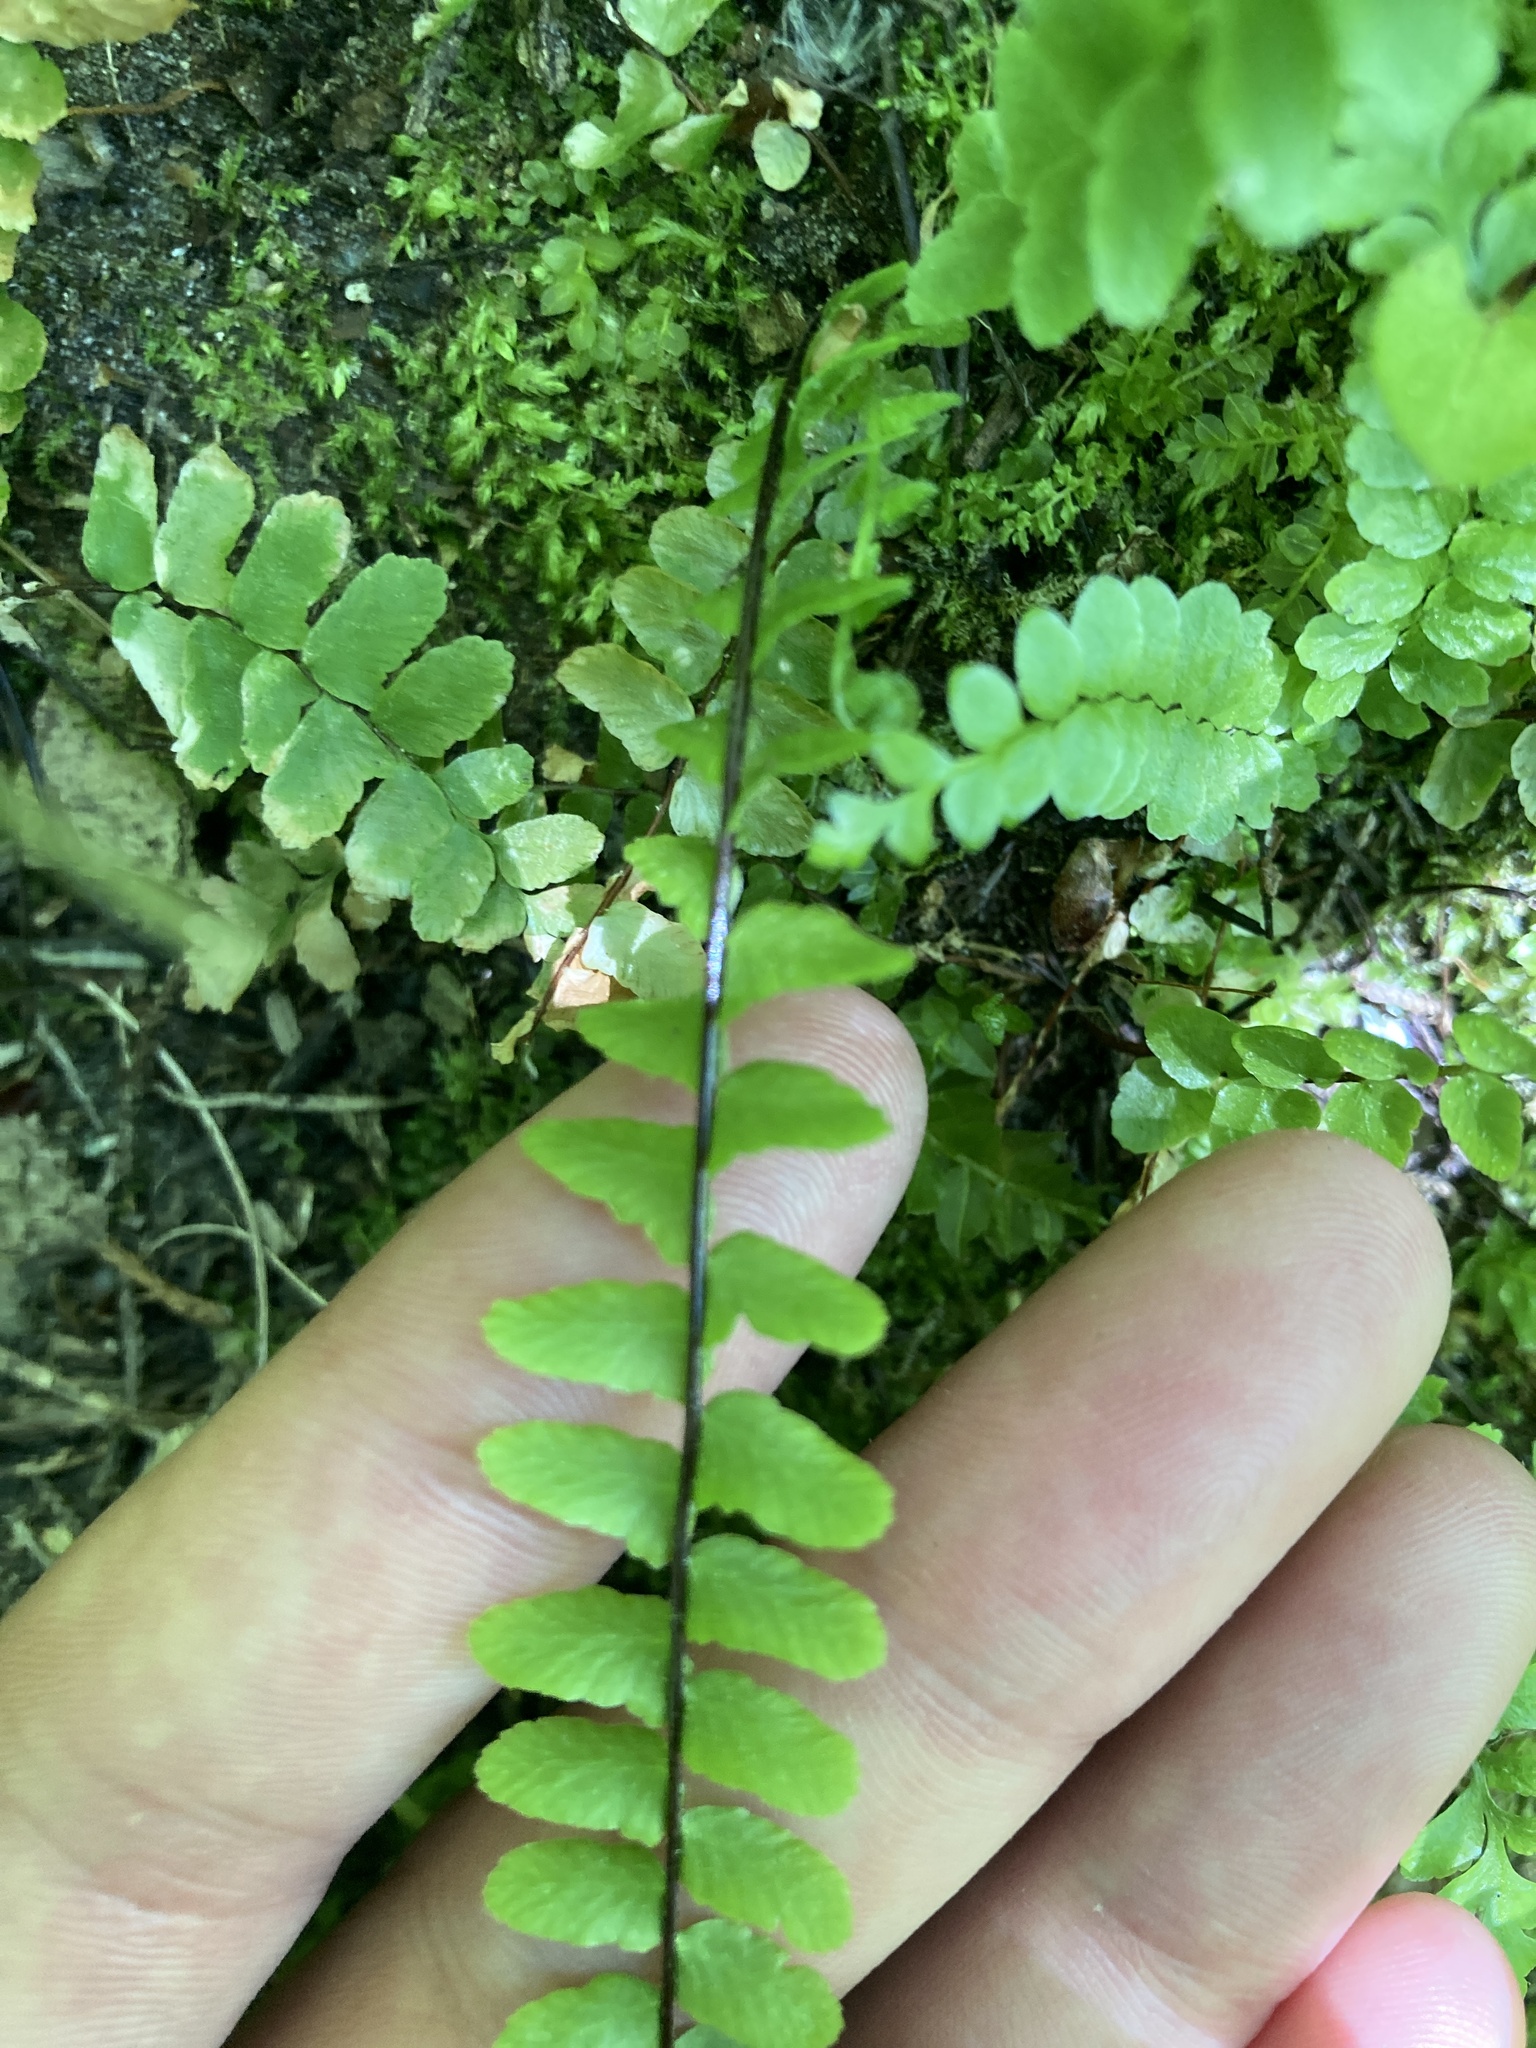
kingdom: Plantae
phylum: Tracheophyta
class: Polypodiopsida
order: Polypodiales
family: Aspleniaceae
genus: Asplenium
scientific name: Asplenium platyneuron
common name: Ebony spleenwort
